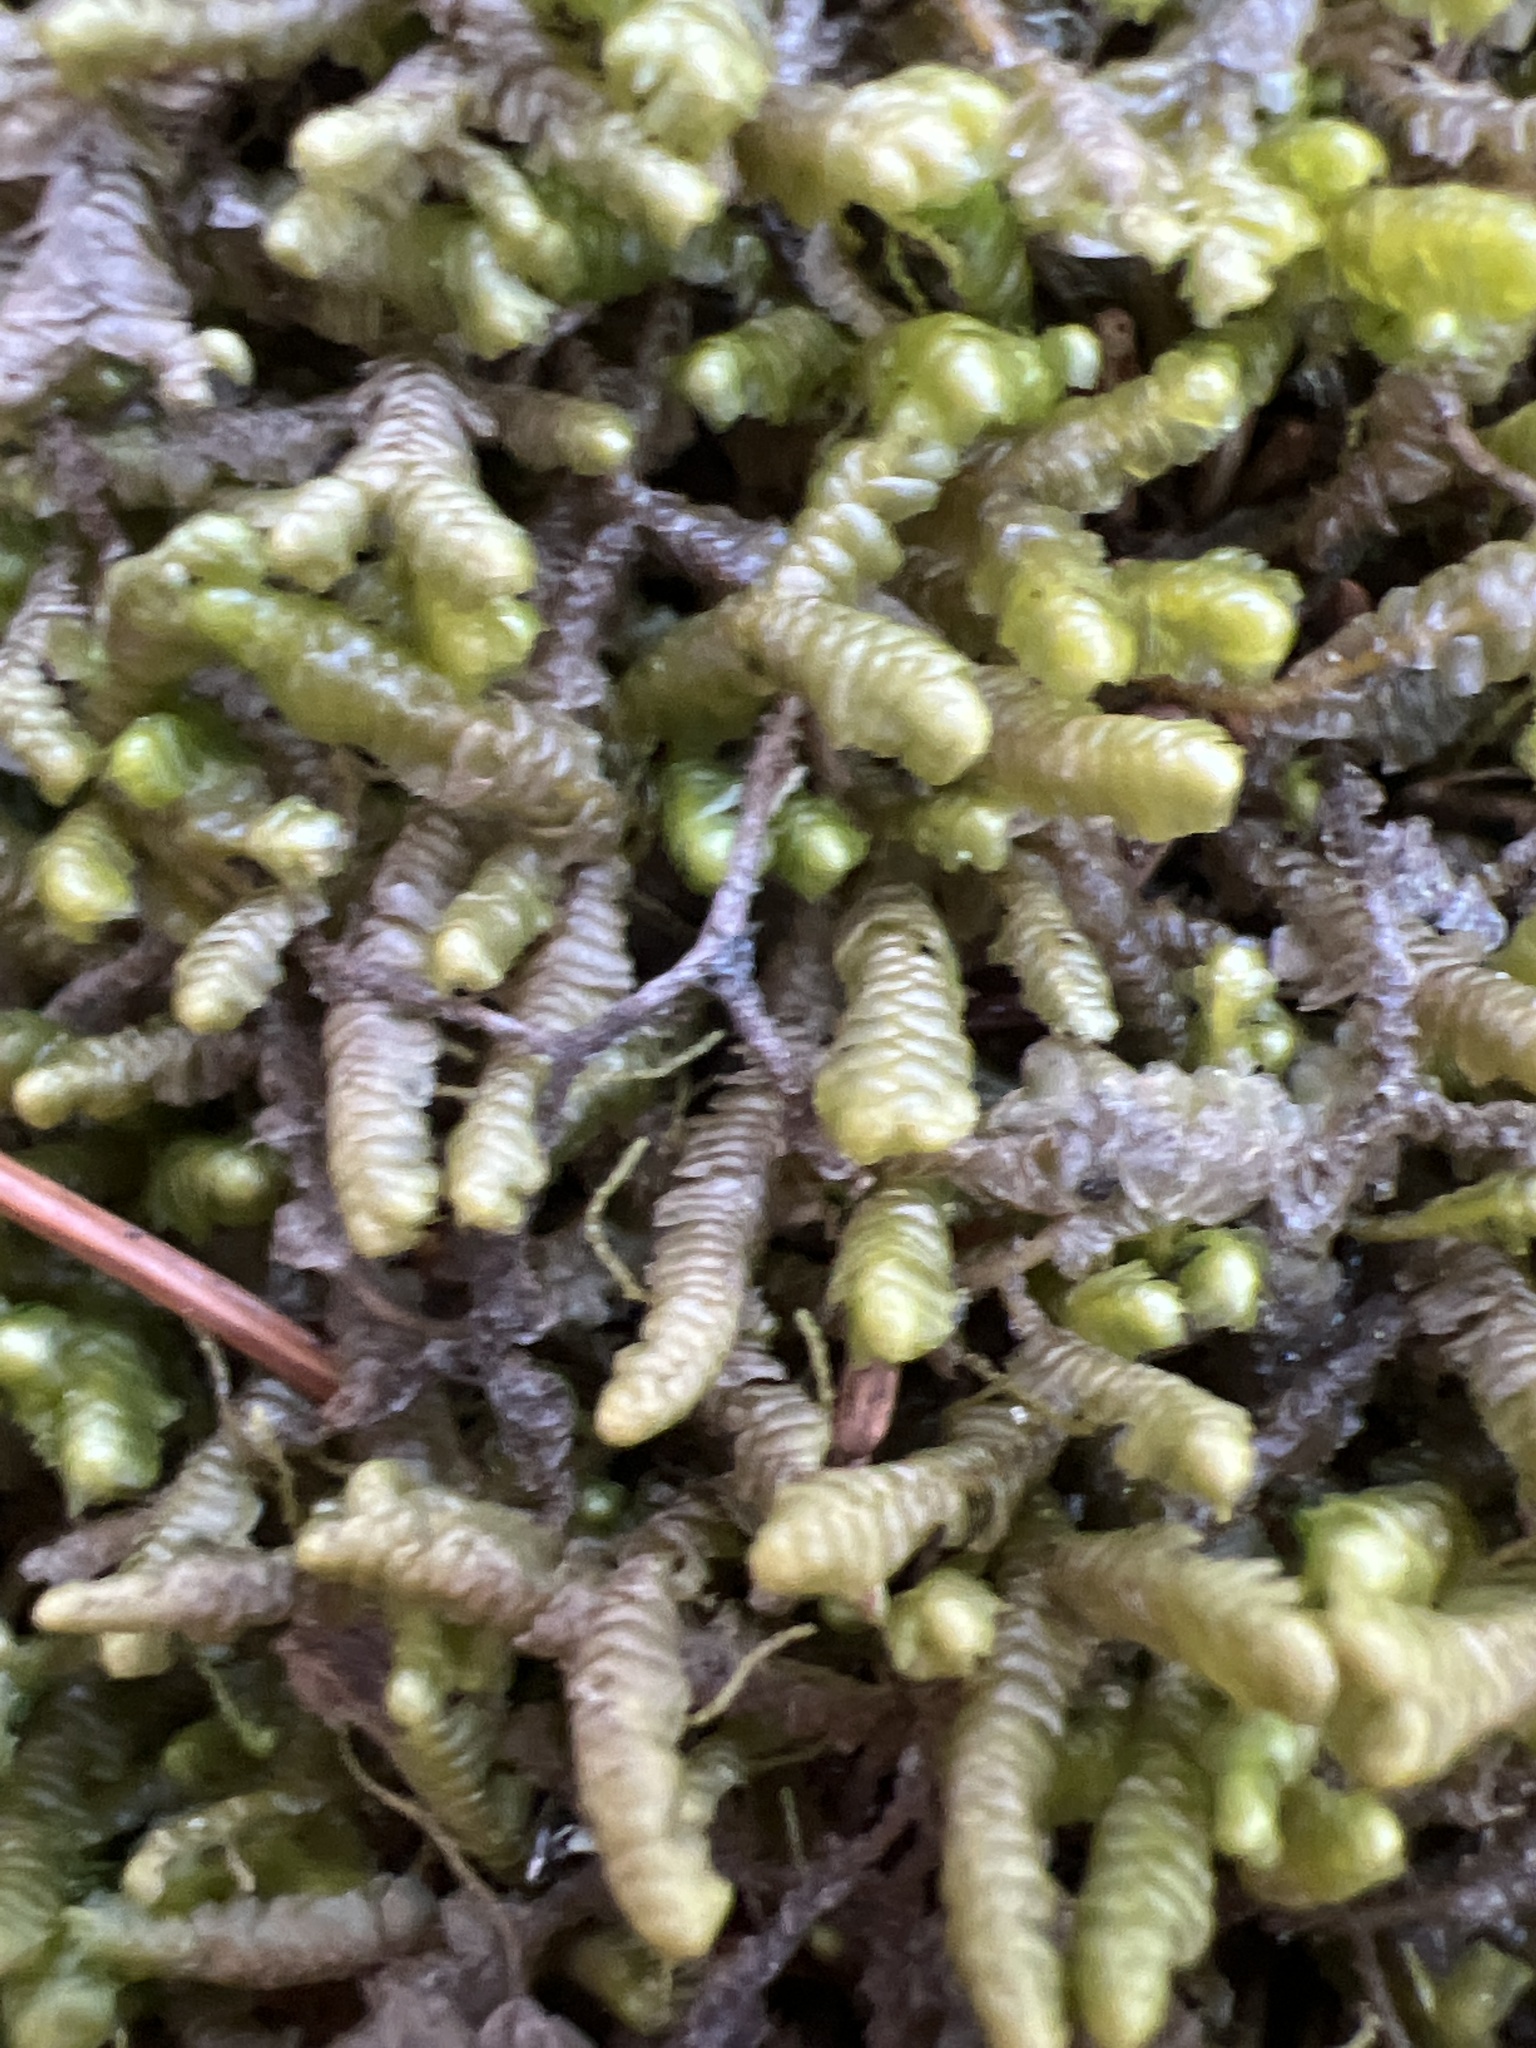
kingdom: Plantae
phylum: Marchantiophyta
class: Jungermanniopsida
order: Jungermanniales
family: Lepidoziaceae
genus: Bazzania
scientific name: Bazzania trilobata
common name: Three-lobed whipwort
